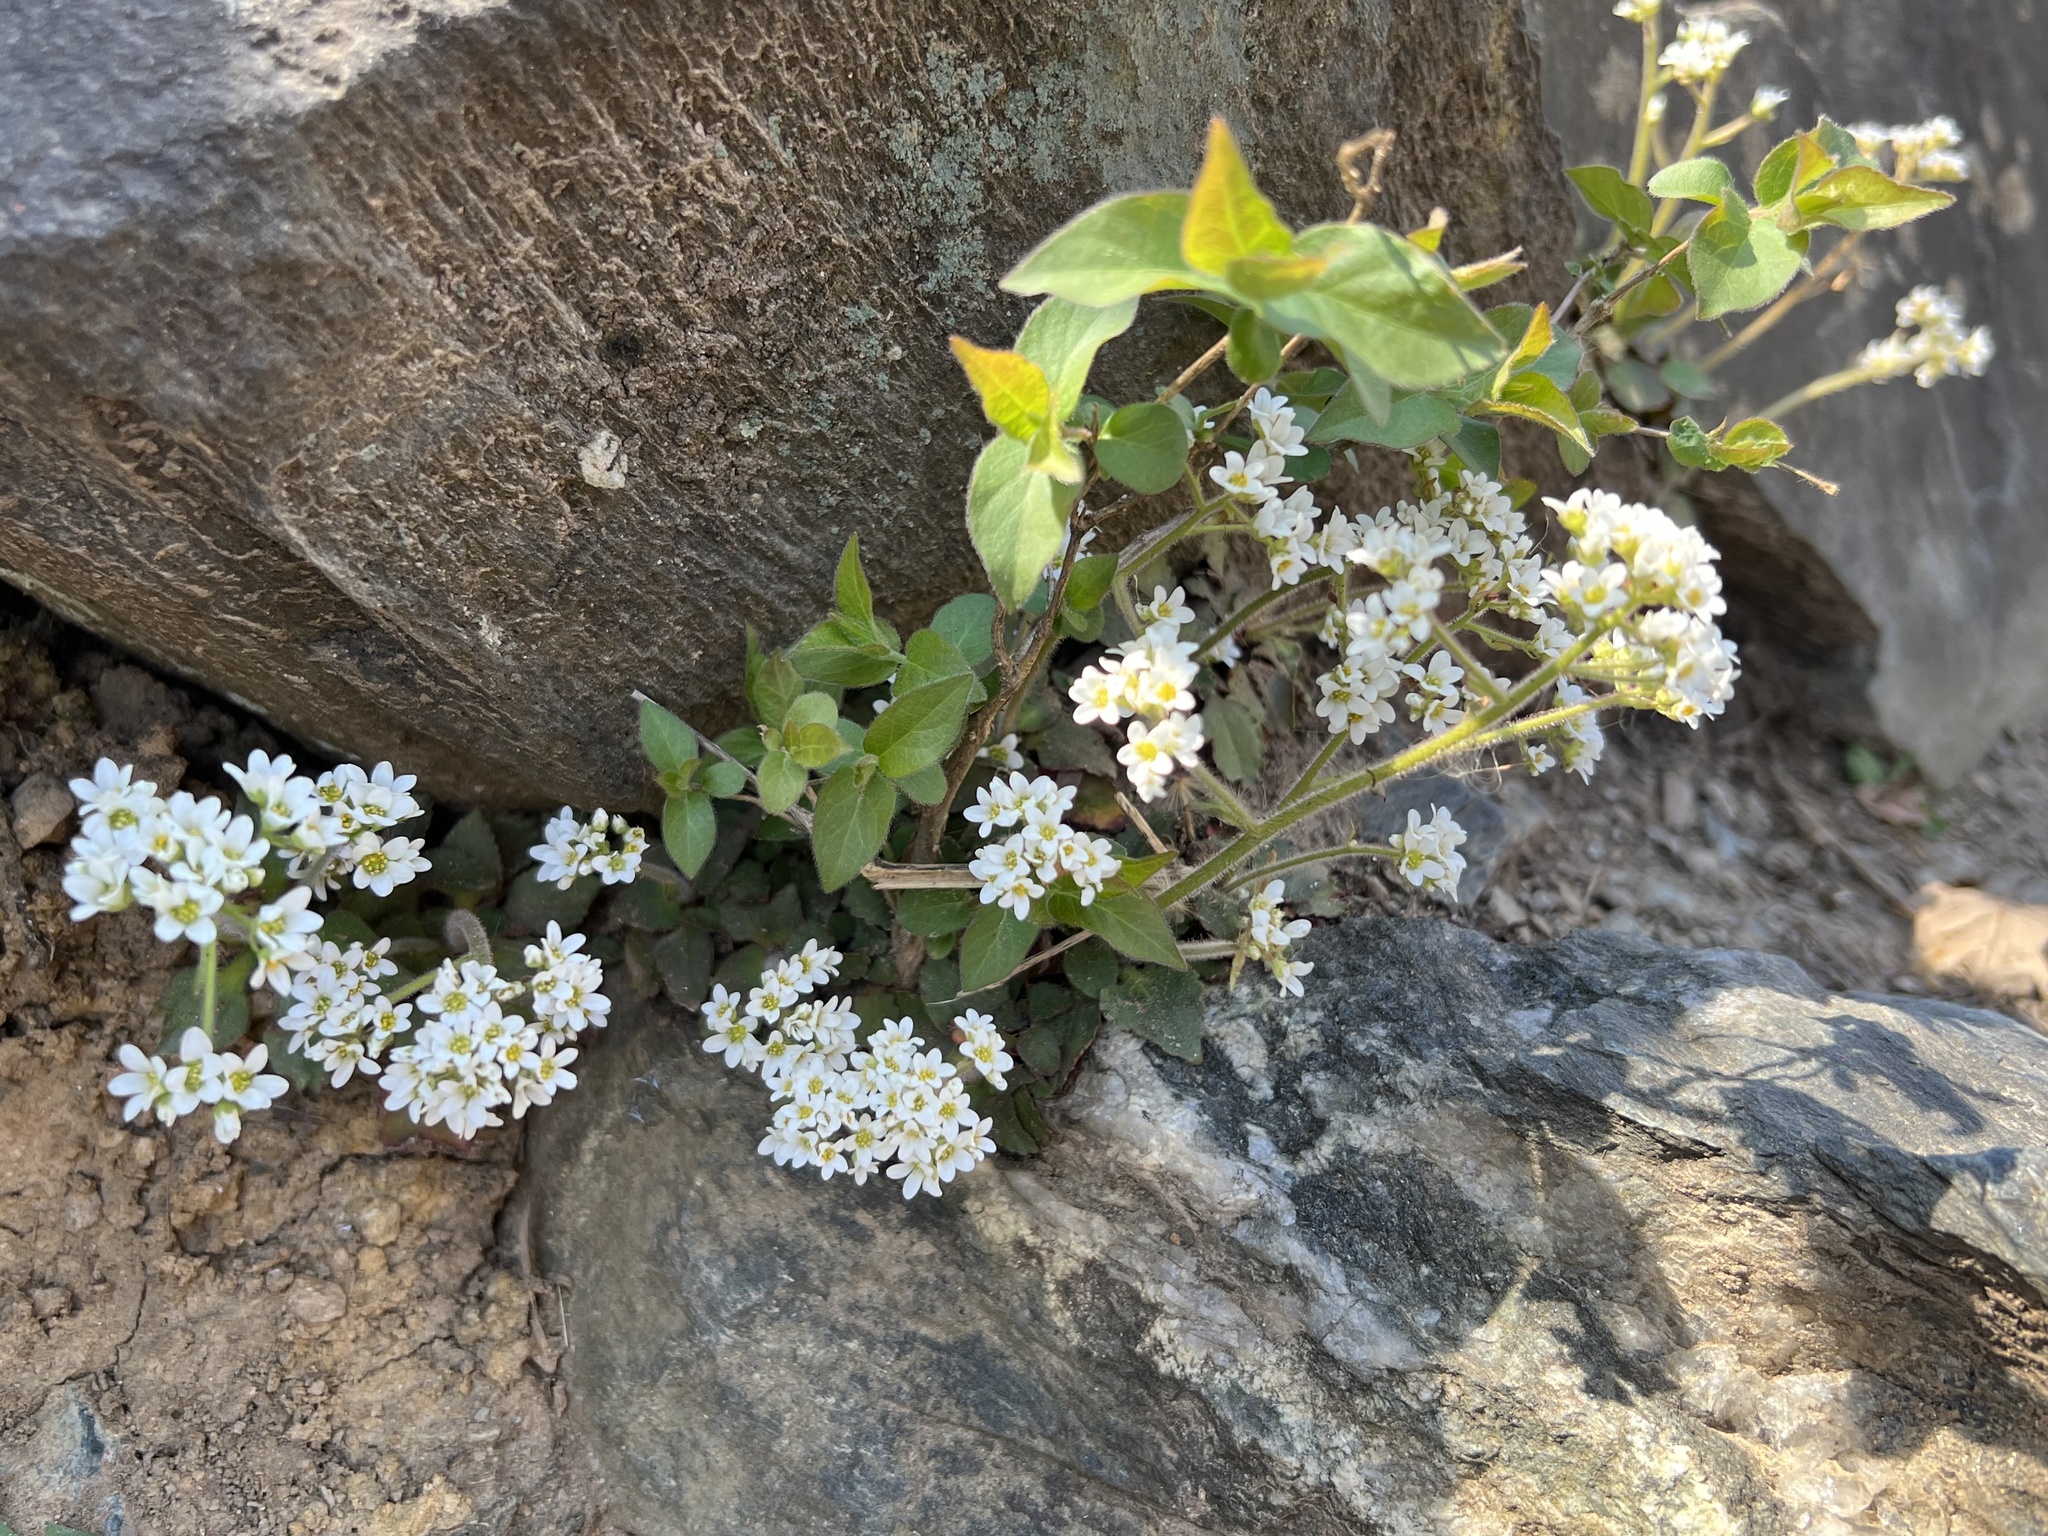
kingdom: Plantae
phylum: Tracheophyta
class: Magnoliopsida
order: Saxifragales
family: Saxifragaceae
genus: Micranthes
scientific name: Micranthes virginiensis
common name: Early saxifrage
